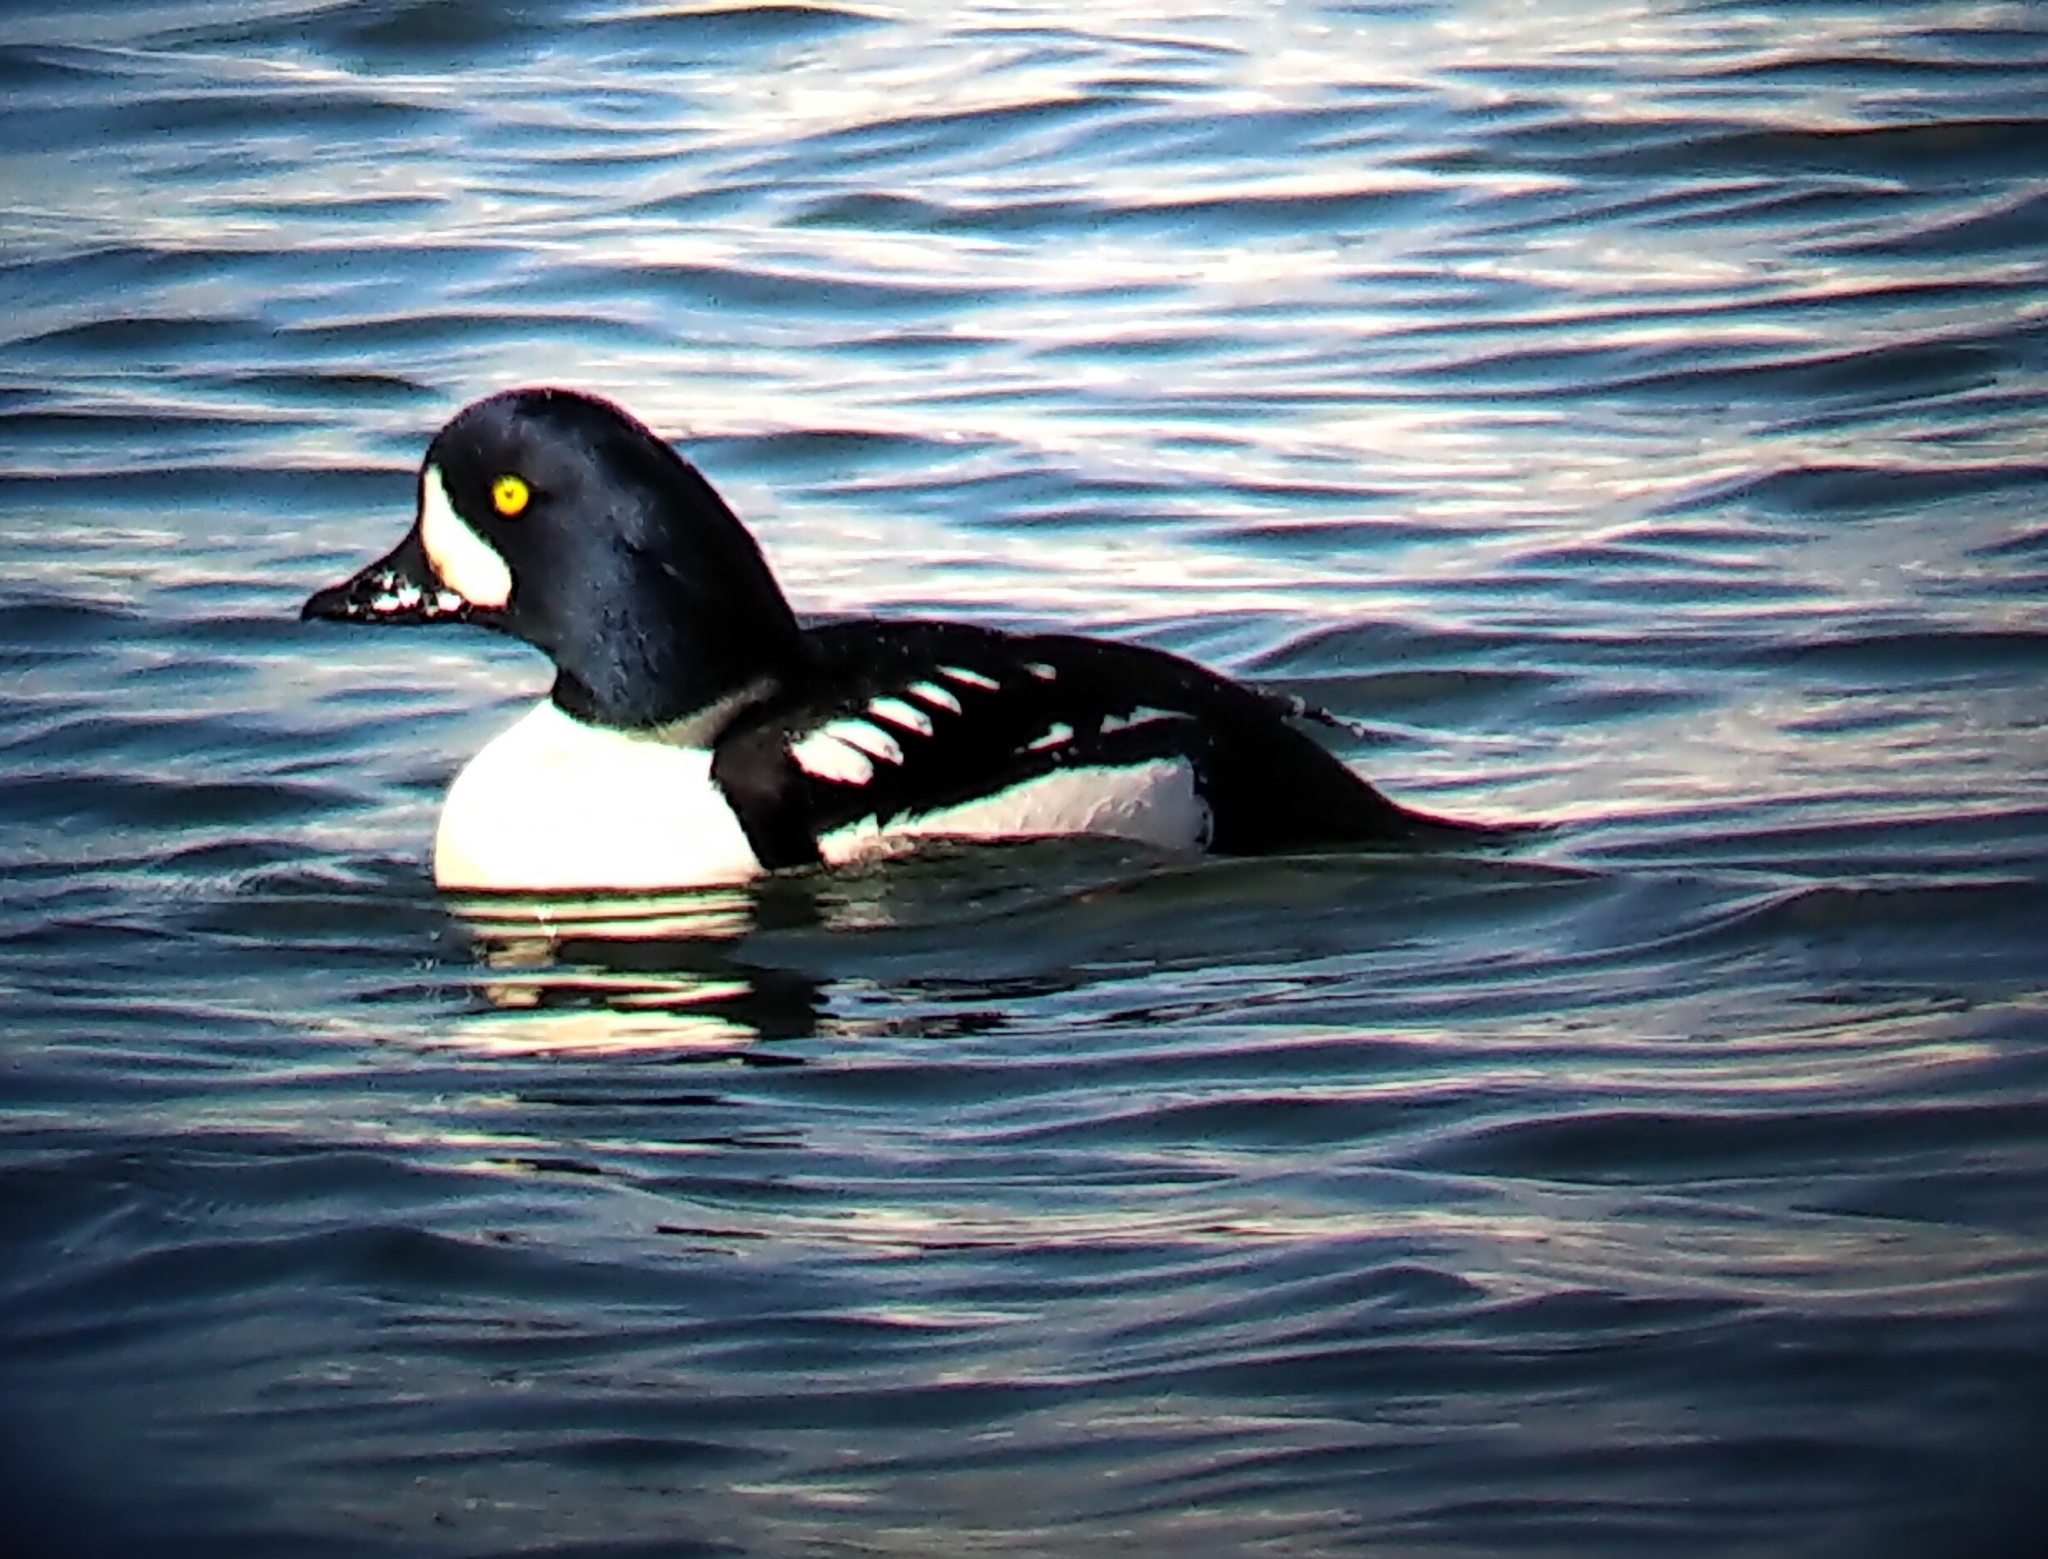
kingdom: Animalia
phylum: Chordata
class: Aves
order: Anseriformes
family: Anatidae
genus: Bucephala
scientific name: Bucephala islandica
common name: Barrow's goldeneye
